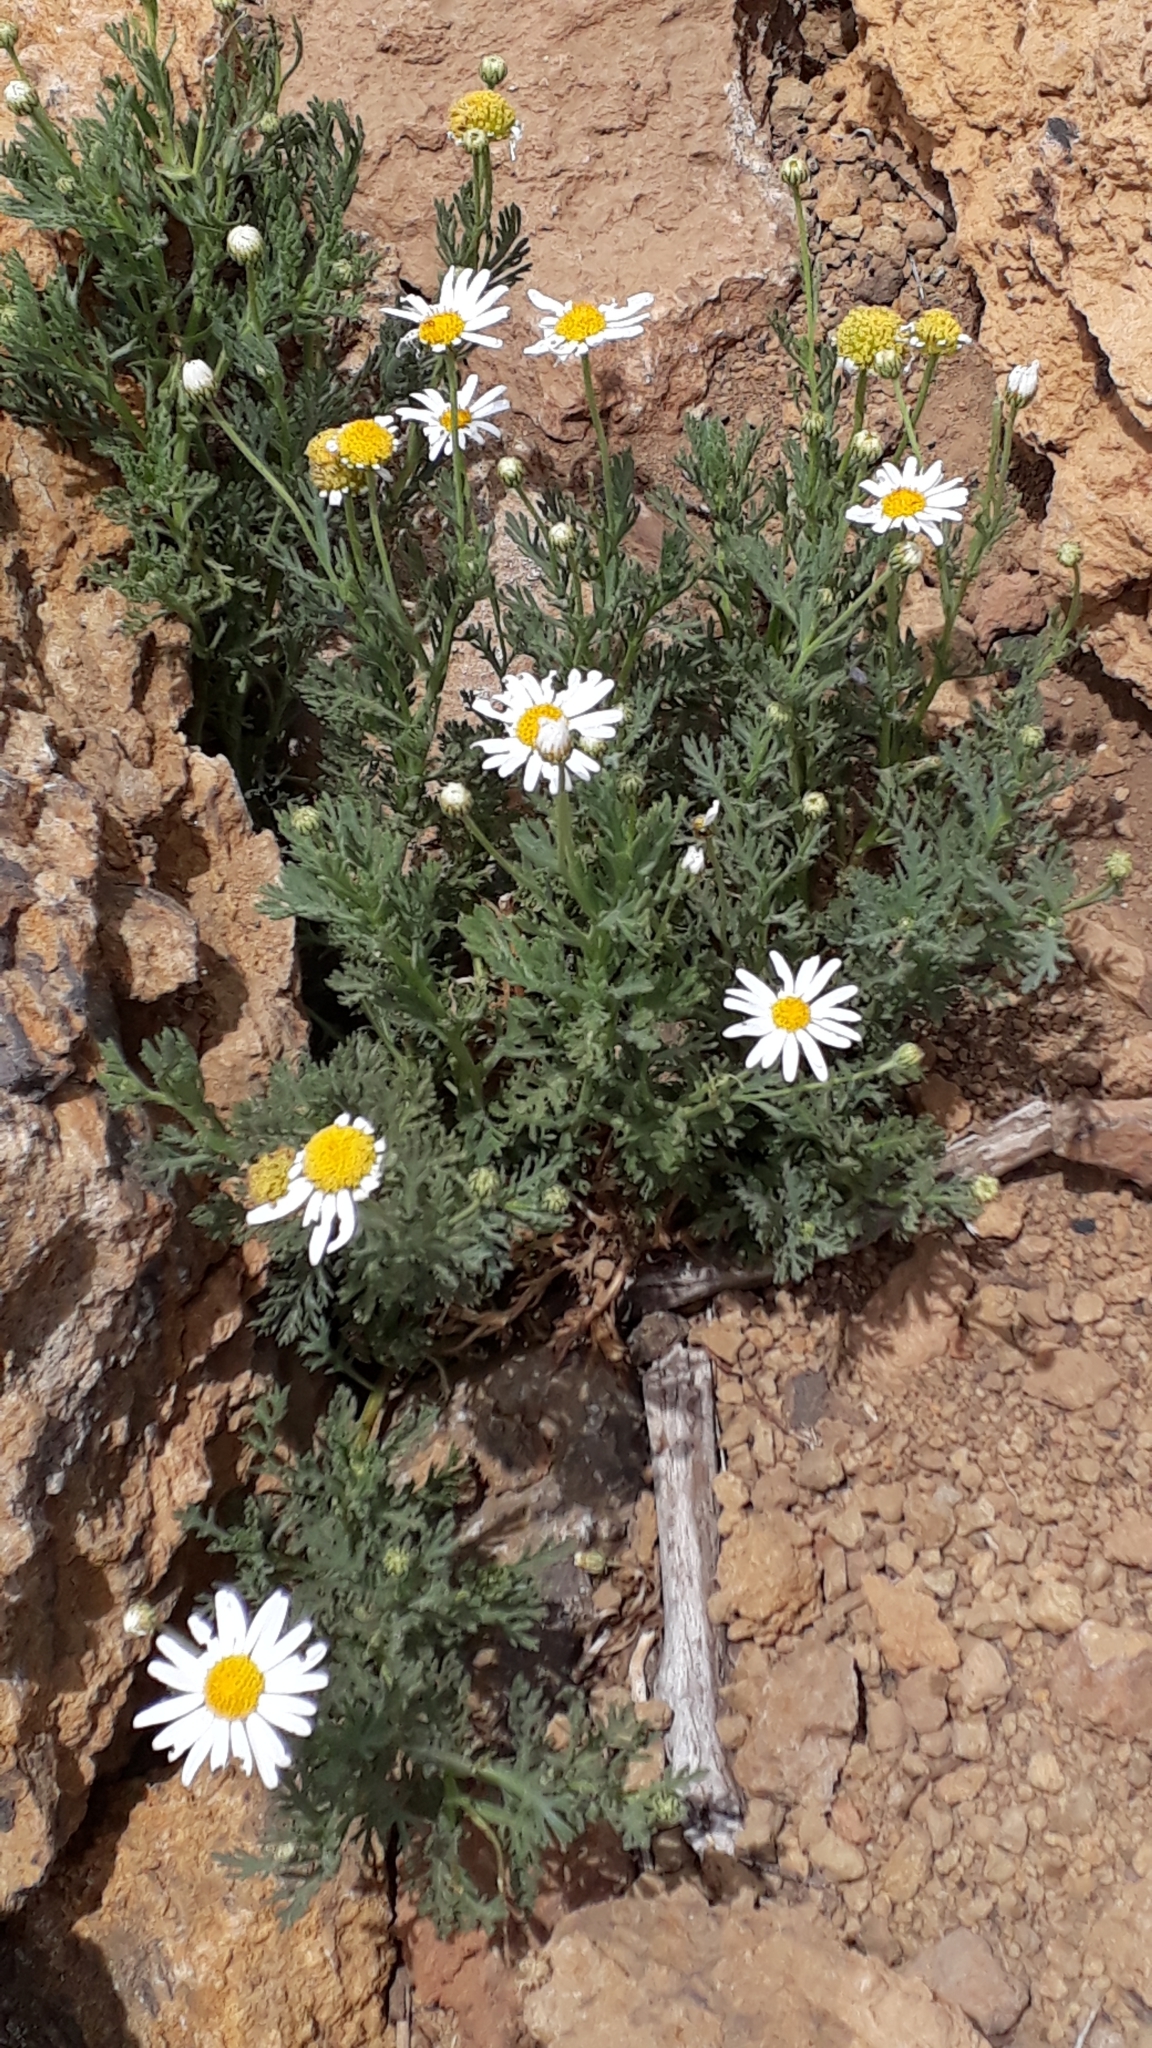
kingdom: Plantae
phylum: Tracheophyta
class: Magnoliopsida
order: Asterales
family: Asteraceae
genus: Argyranthemum
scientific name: Argyranthemum tenerifae
